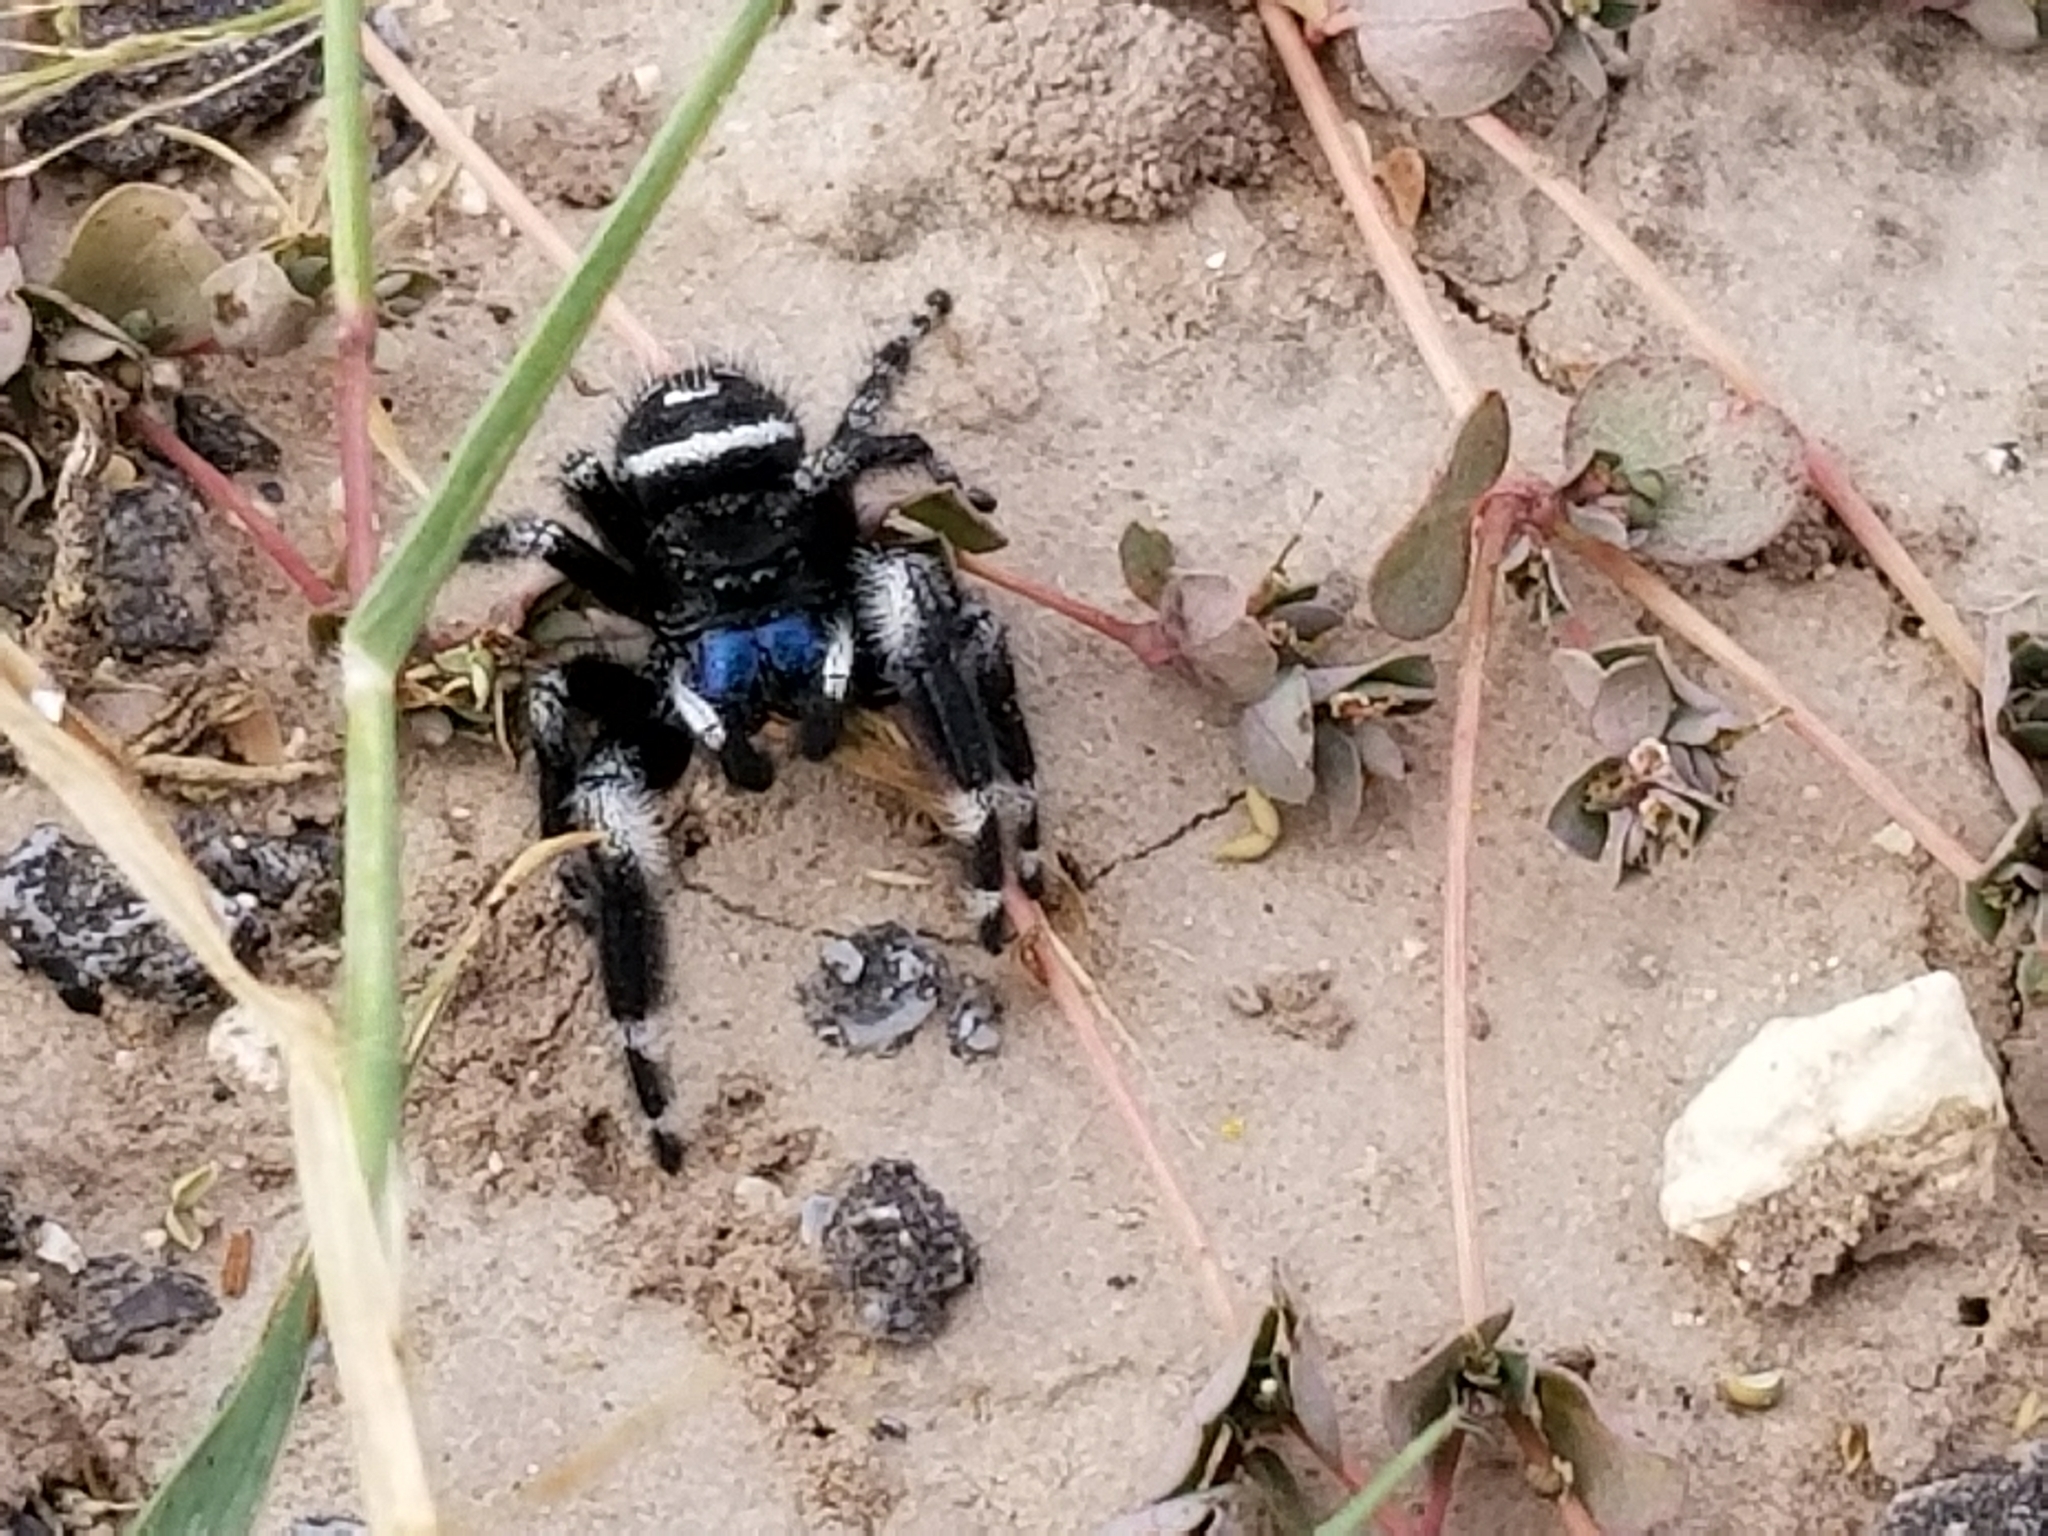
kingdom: Animalia
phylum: Arthropoda
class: Arachnida
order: Araneae
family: Salticidae
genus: Phidippus
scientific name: Phidippus audax
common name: Bold jumper
